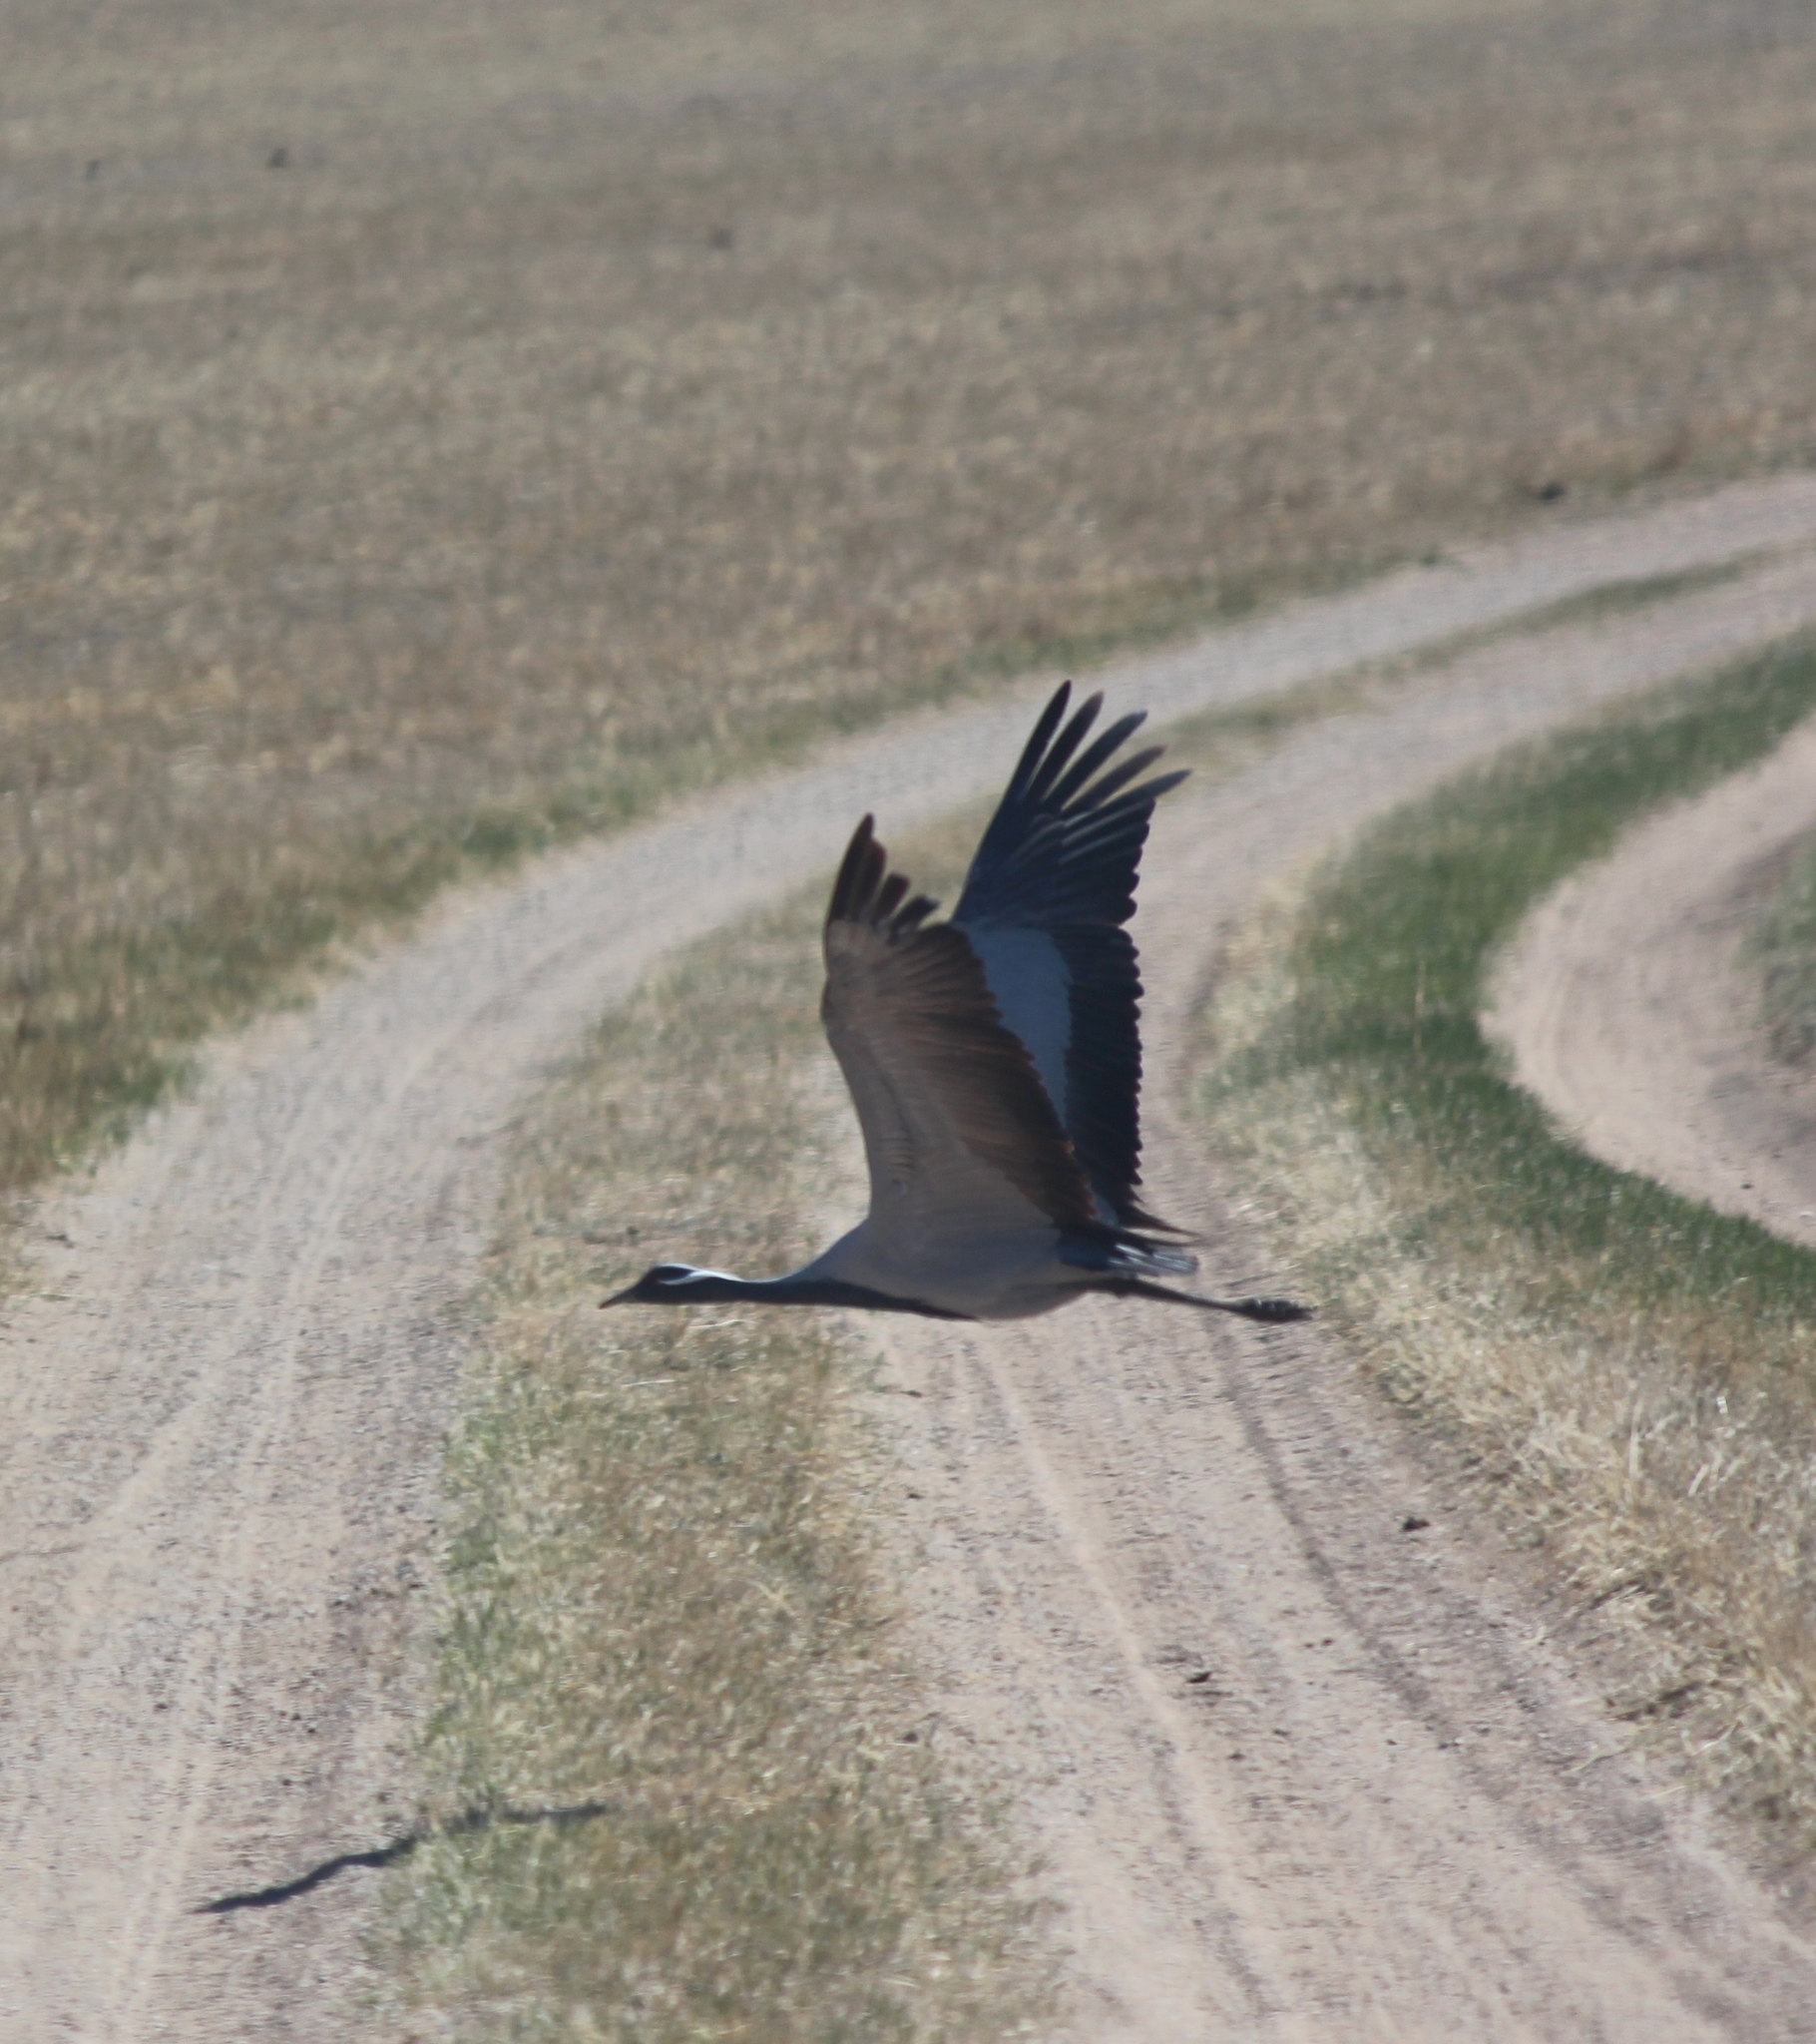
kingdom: Animalia
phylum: Chordata
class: Aves
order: Gruiformes
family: Gruidae
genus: Anthropoides
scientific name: Anthropoides virgo
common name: Demoiselle crane
